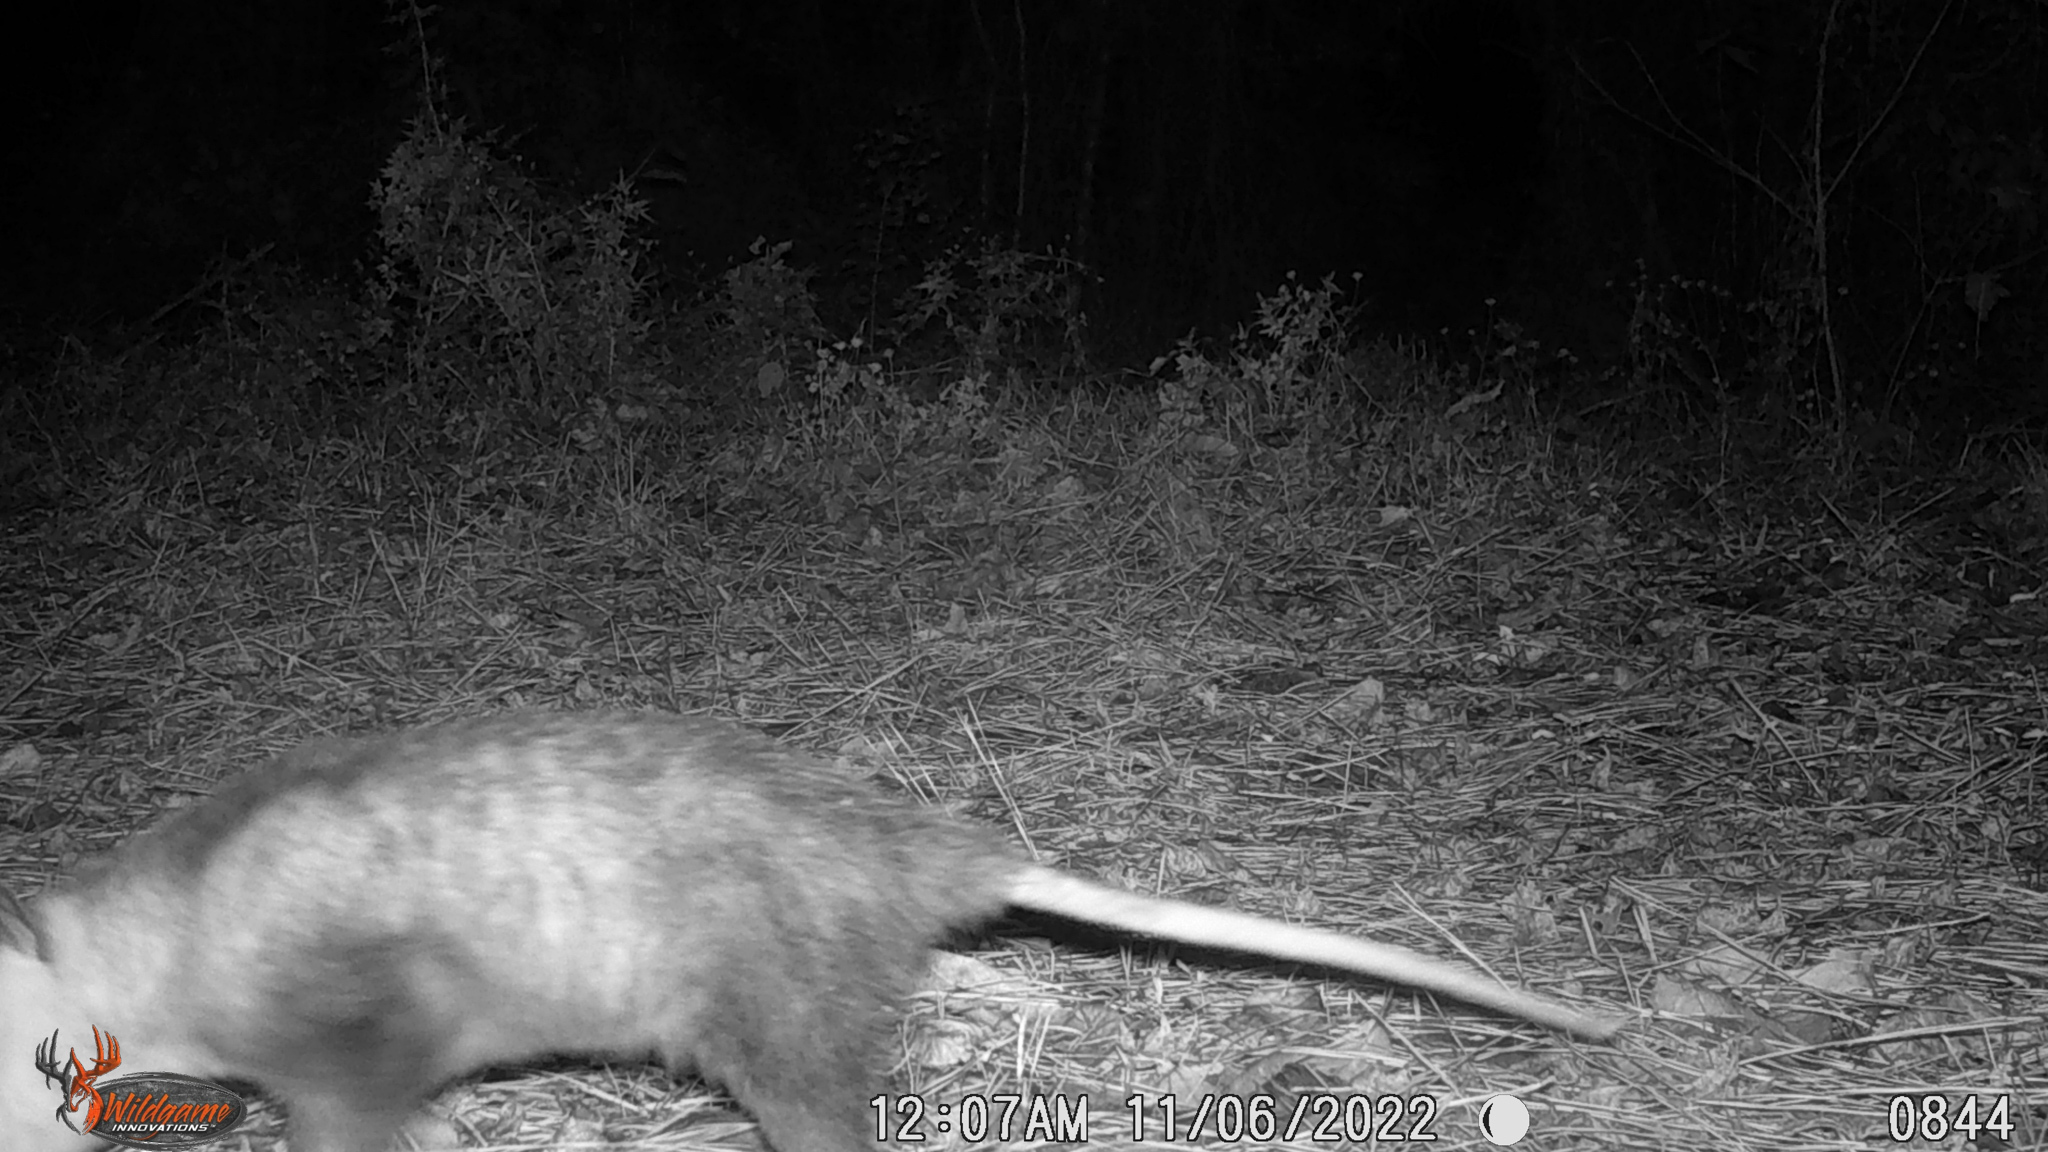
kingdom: Animalia
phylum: Chordata
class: Mammalia
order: Didelphimorphia
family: Didelphidae
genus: Didelphis
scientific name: Didelphis virginiana
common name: Virginia opossum
